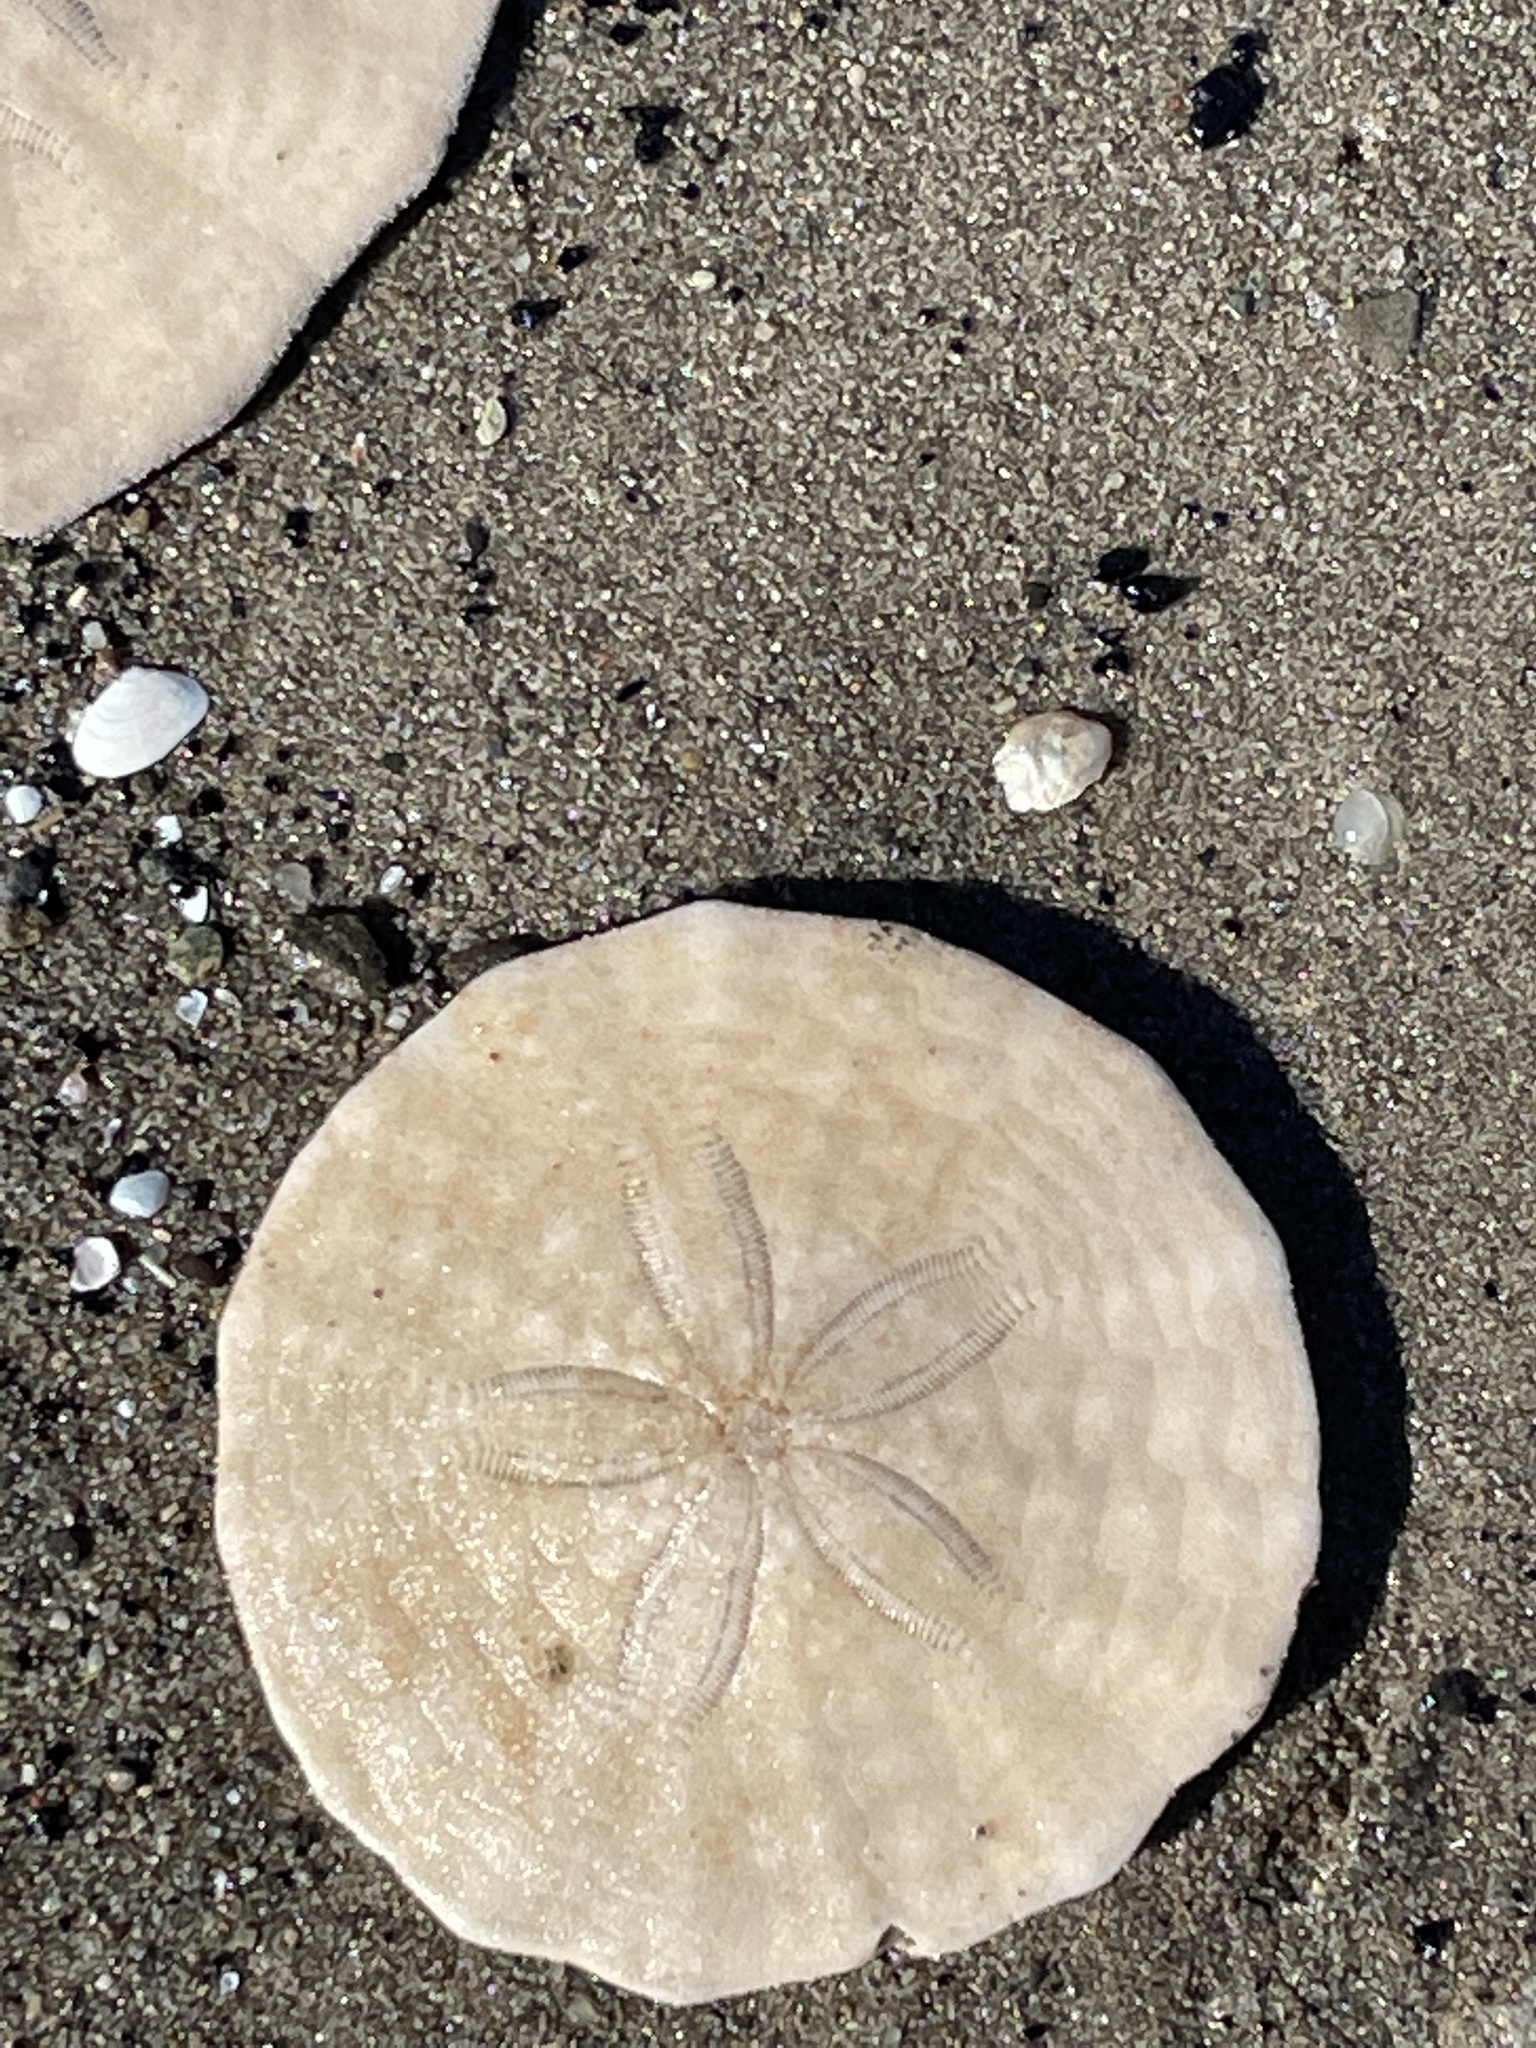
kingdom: Animalia
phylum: Echinodermata
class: Echinoidea
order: Echinolampadacea
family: Echinarachniidae
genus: Echinarachnius
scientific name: Echinarachnius parma
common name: Common sand dollar
